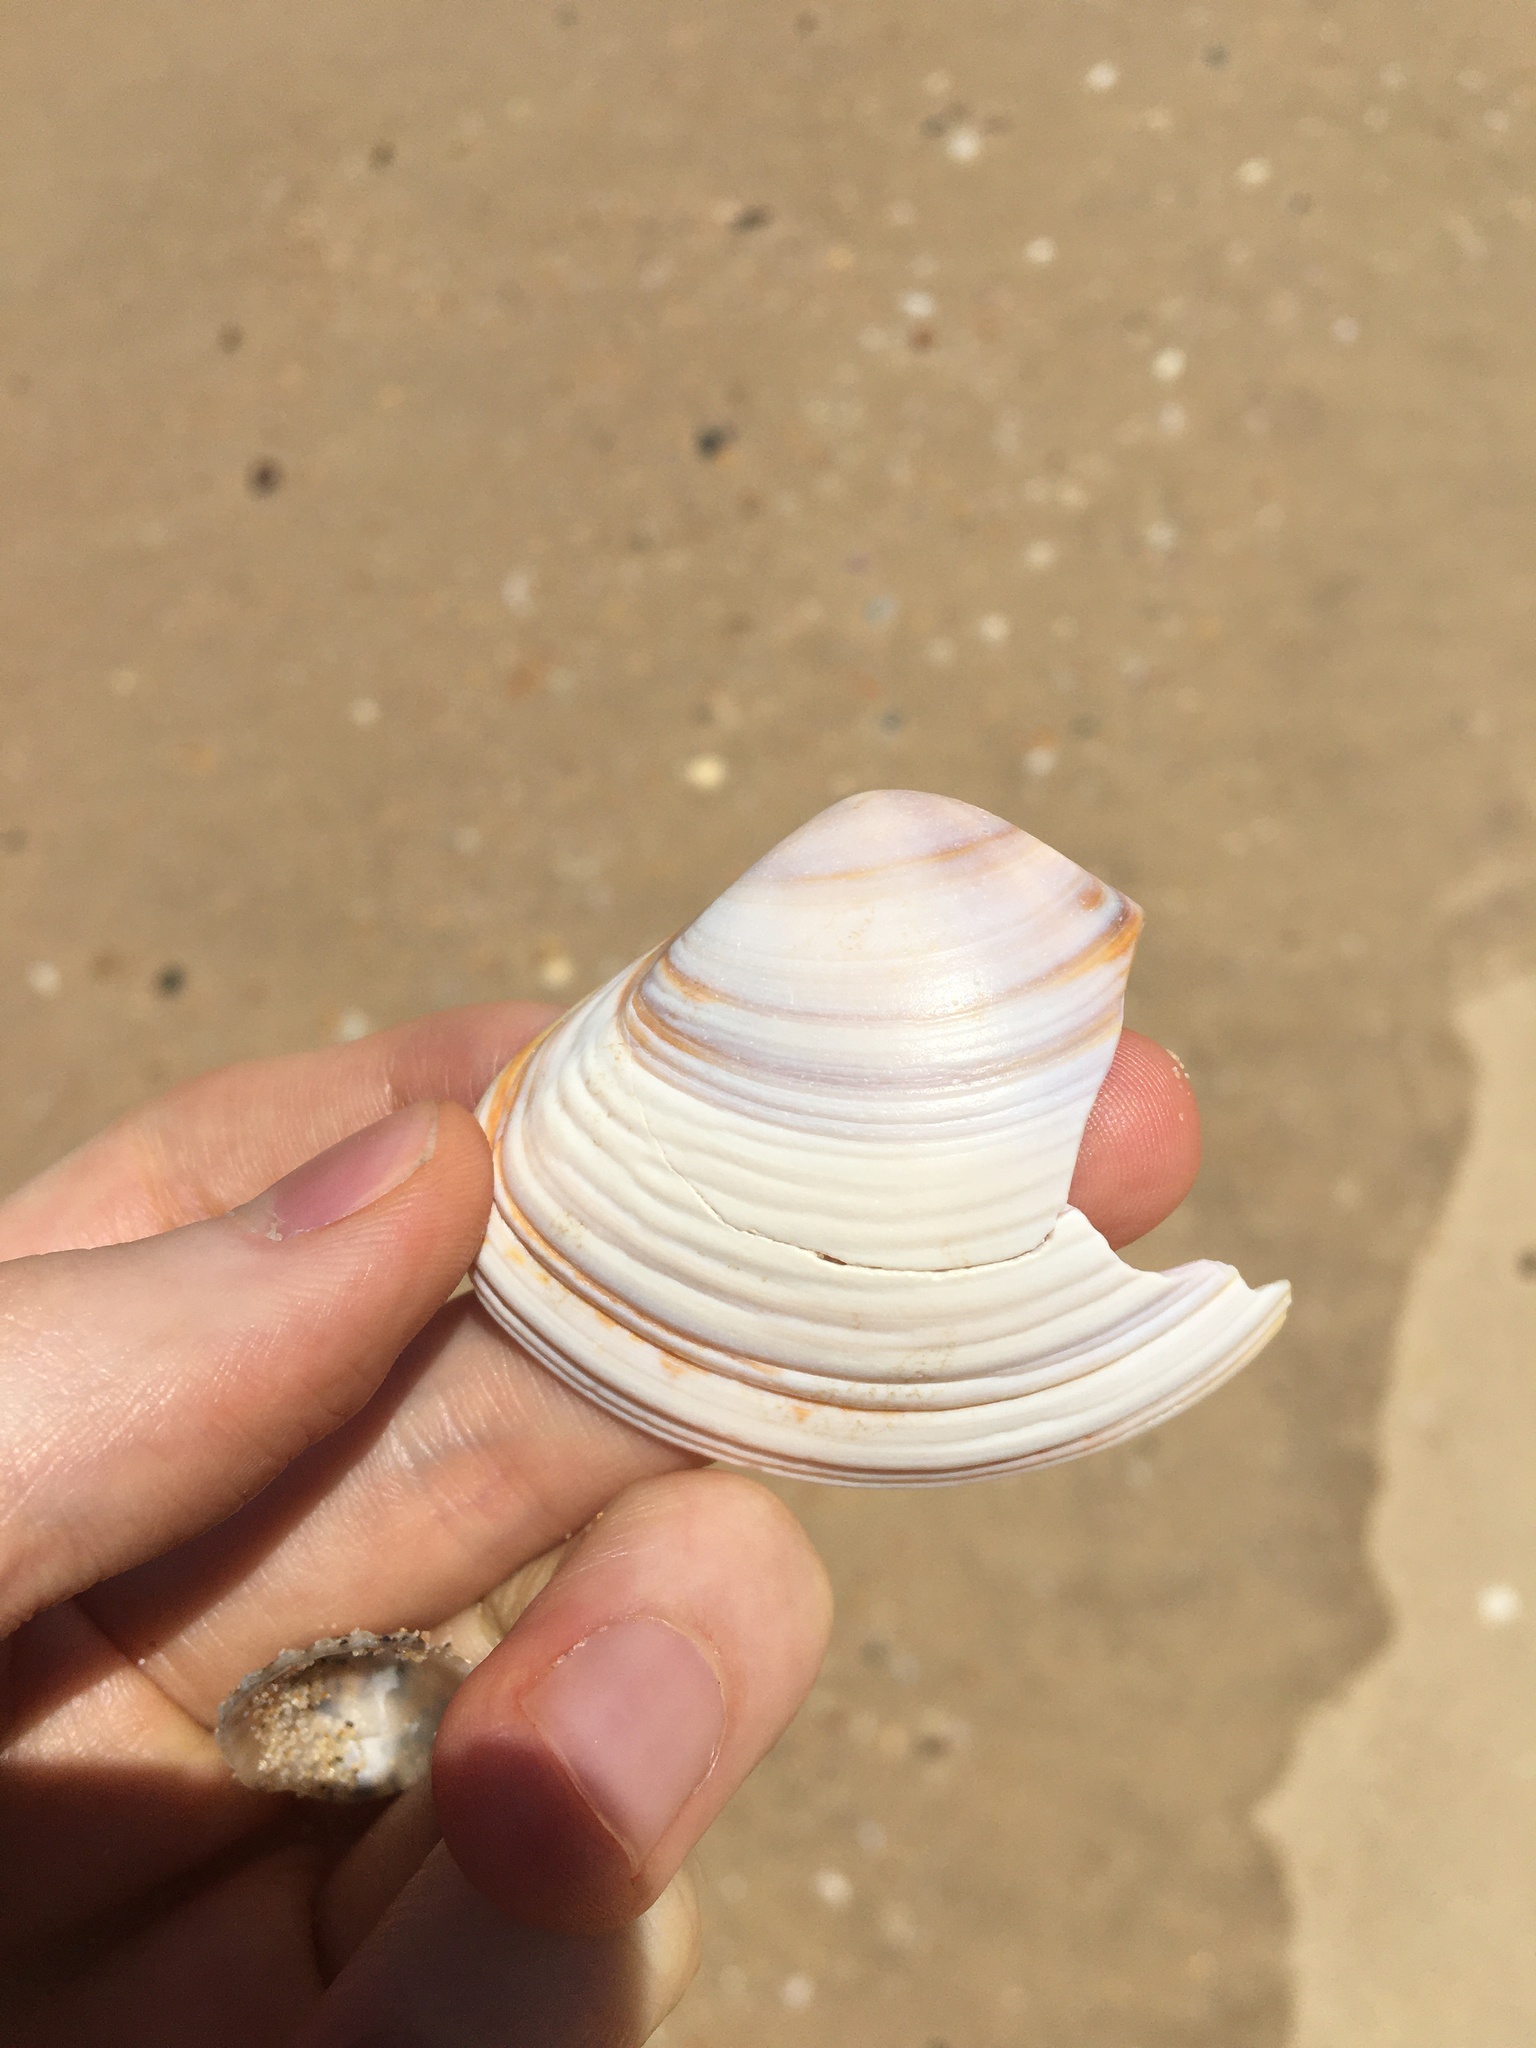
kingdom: Animalia
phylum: Mollusca
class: Bivalvia
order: Venerida
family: Mactridae
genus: Austromactra
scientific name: Austromactra rufescens
